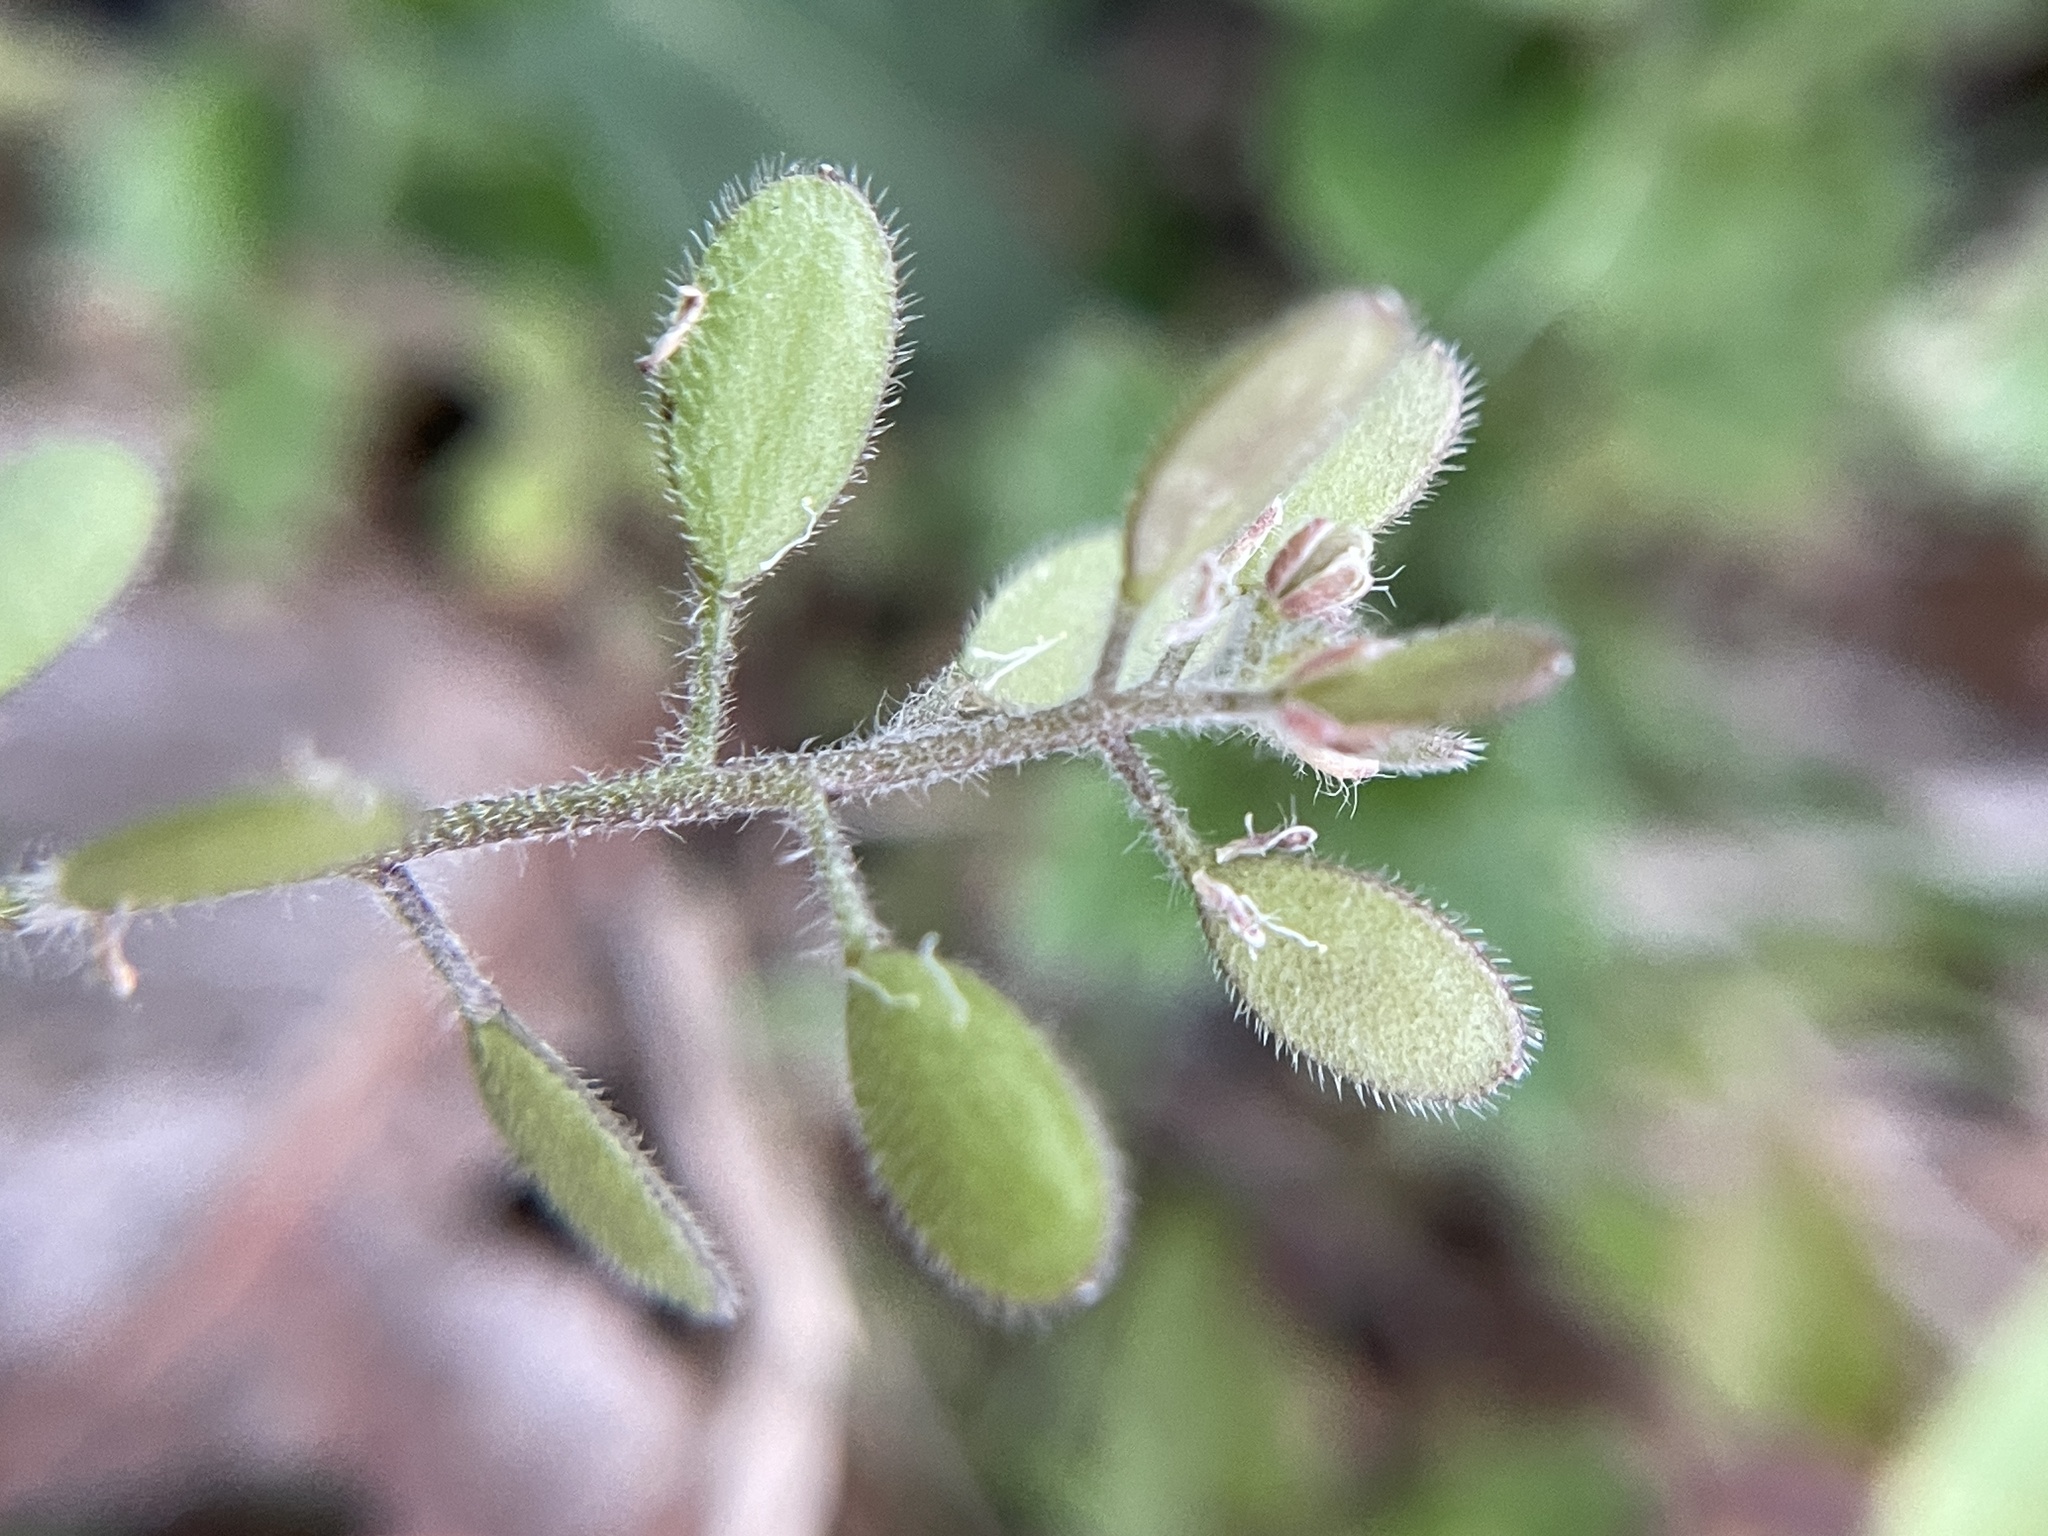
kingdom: Plantae
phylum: Tracheophyta
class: Magnoliopsida
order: Brassicales
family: Brassicaceae
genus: Tomostima
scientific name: Tomostima platycarpa
